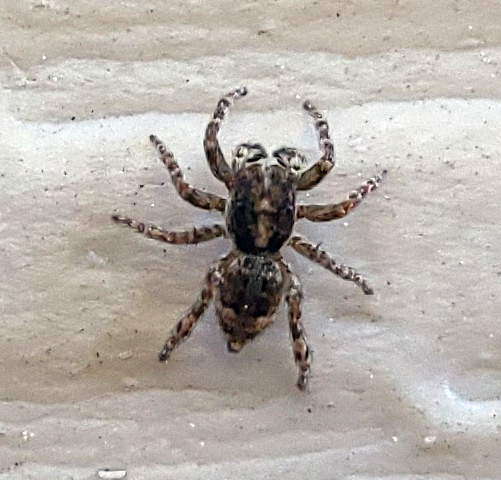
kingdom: Animalia
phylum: Arthropoda
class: Arachnida
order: Araneae
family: Salticidae
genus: Attulus
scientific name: Attulus fasciger
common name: Asiatic wall jumping spider
